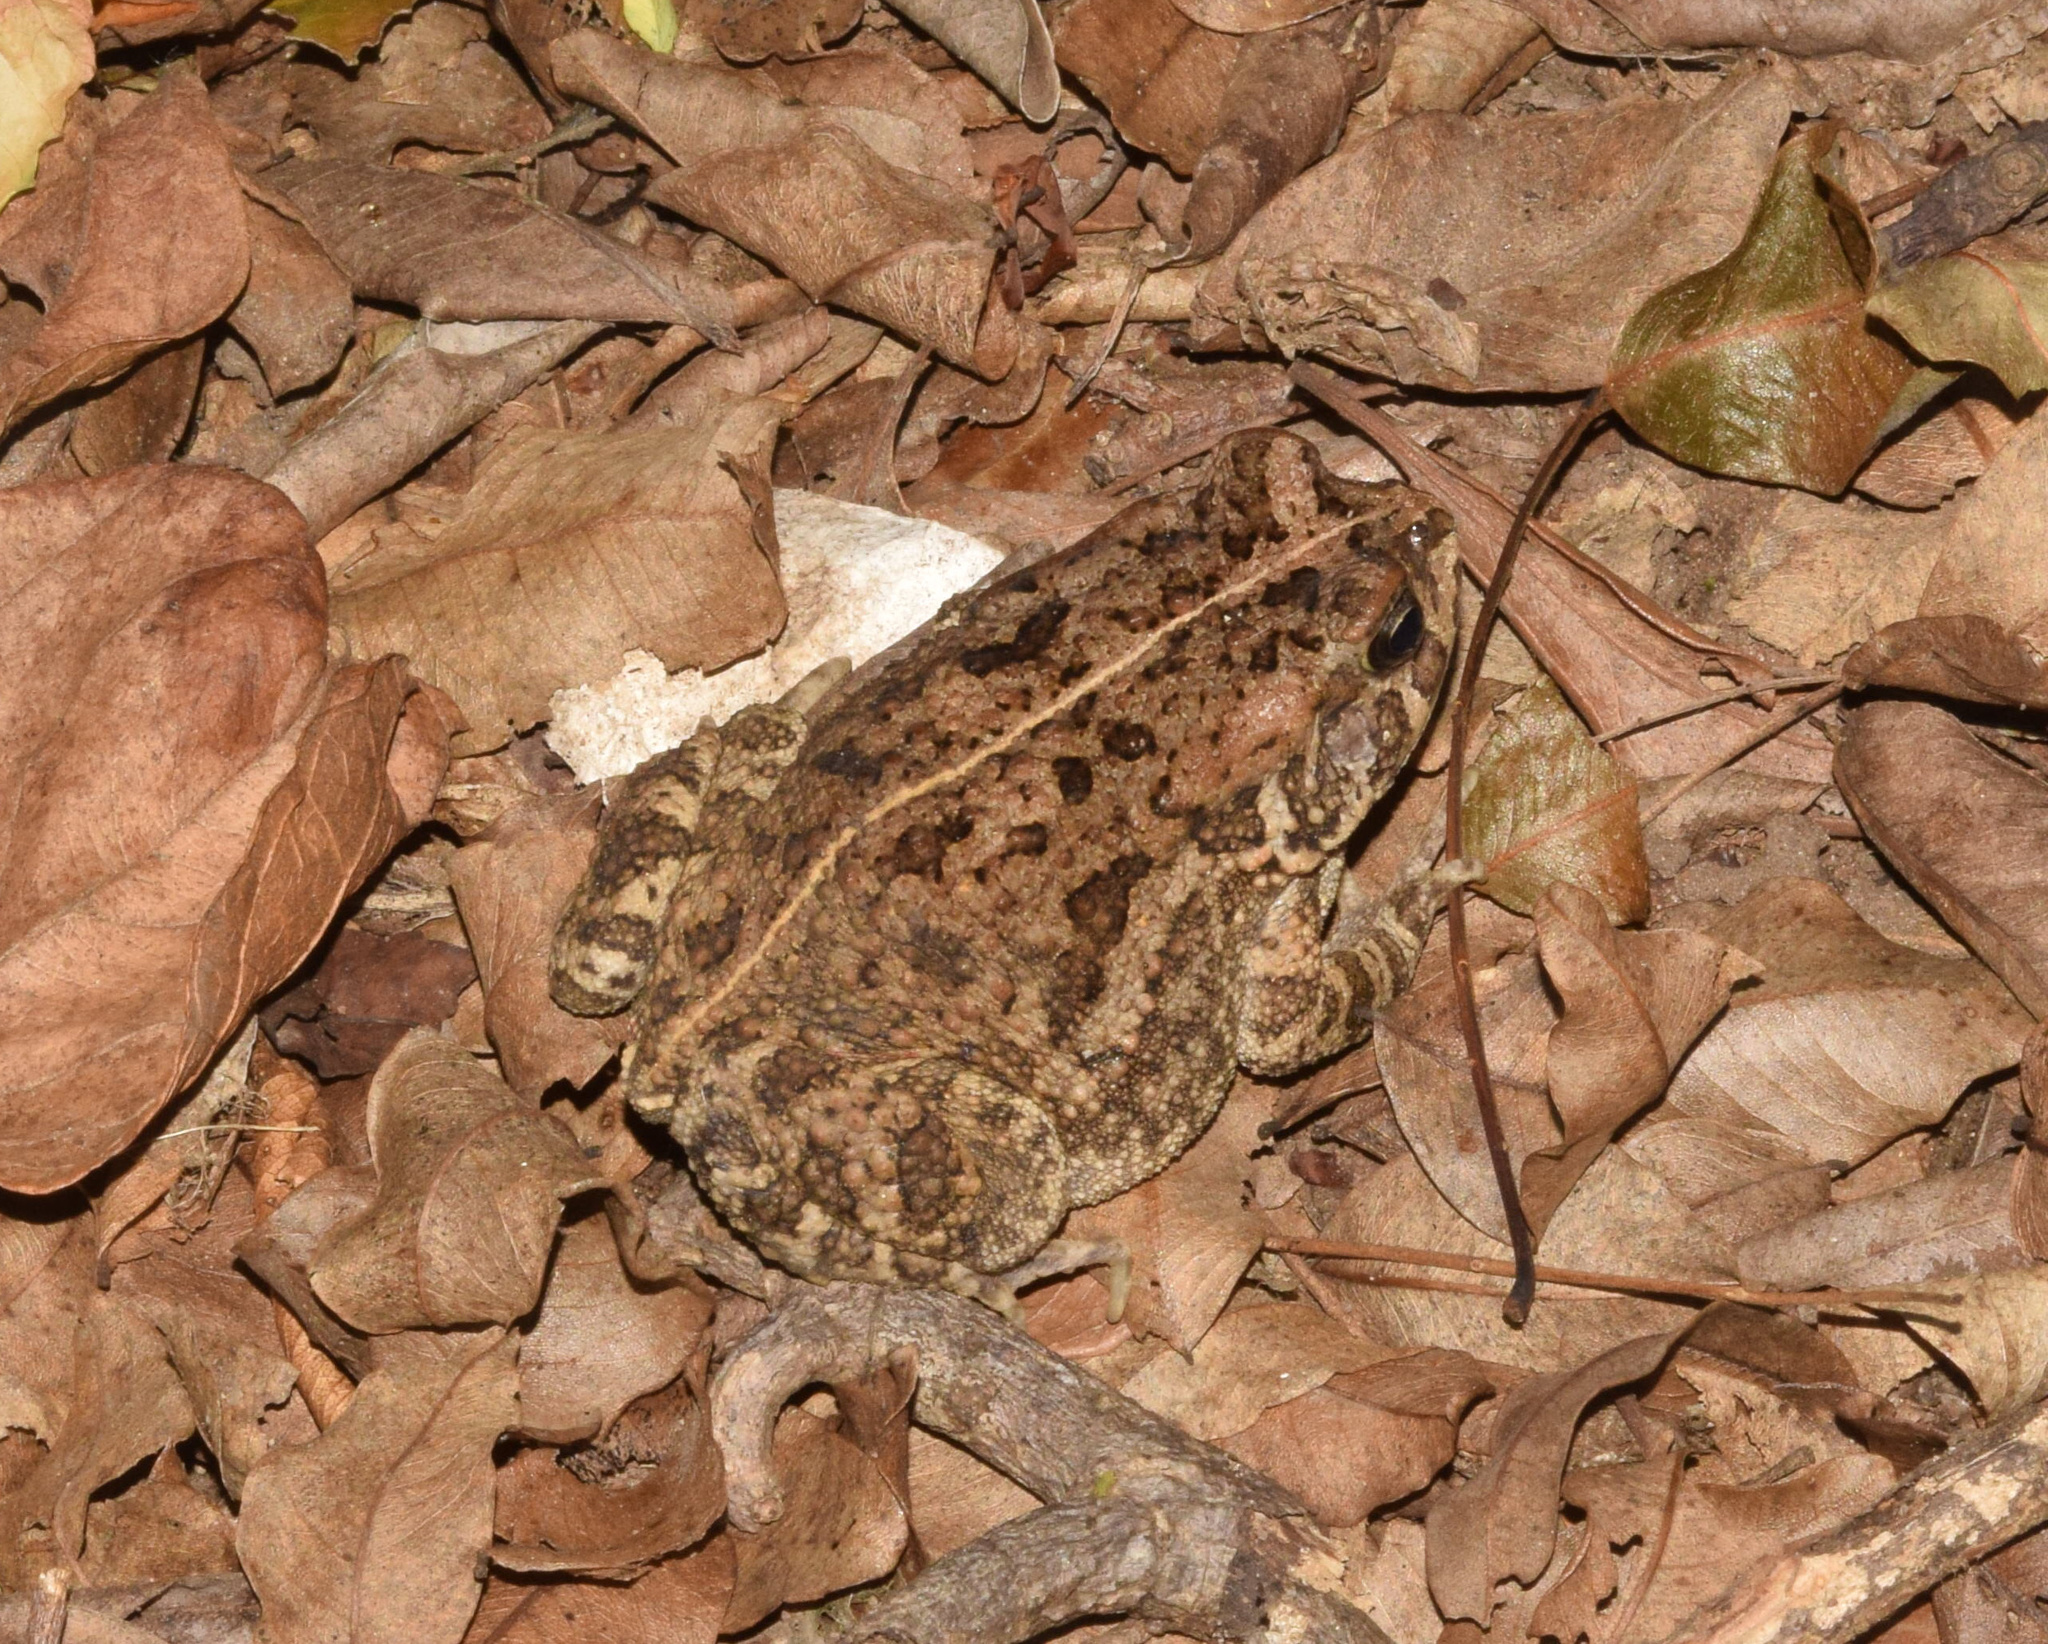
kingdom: Animalia
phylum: Chordata
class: Amphibia
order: Anura
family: Bufonidae
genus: Sclerophrys
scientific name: Sclerophrys gutturalis
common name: African common toad
